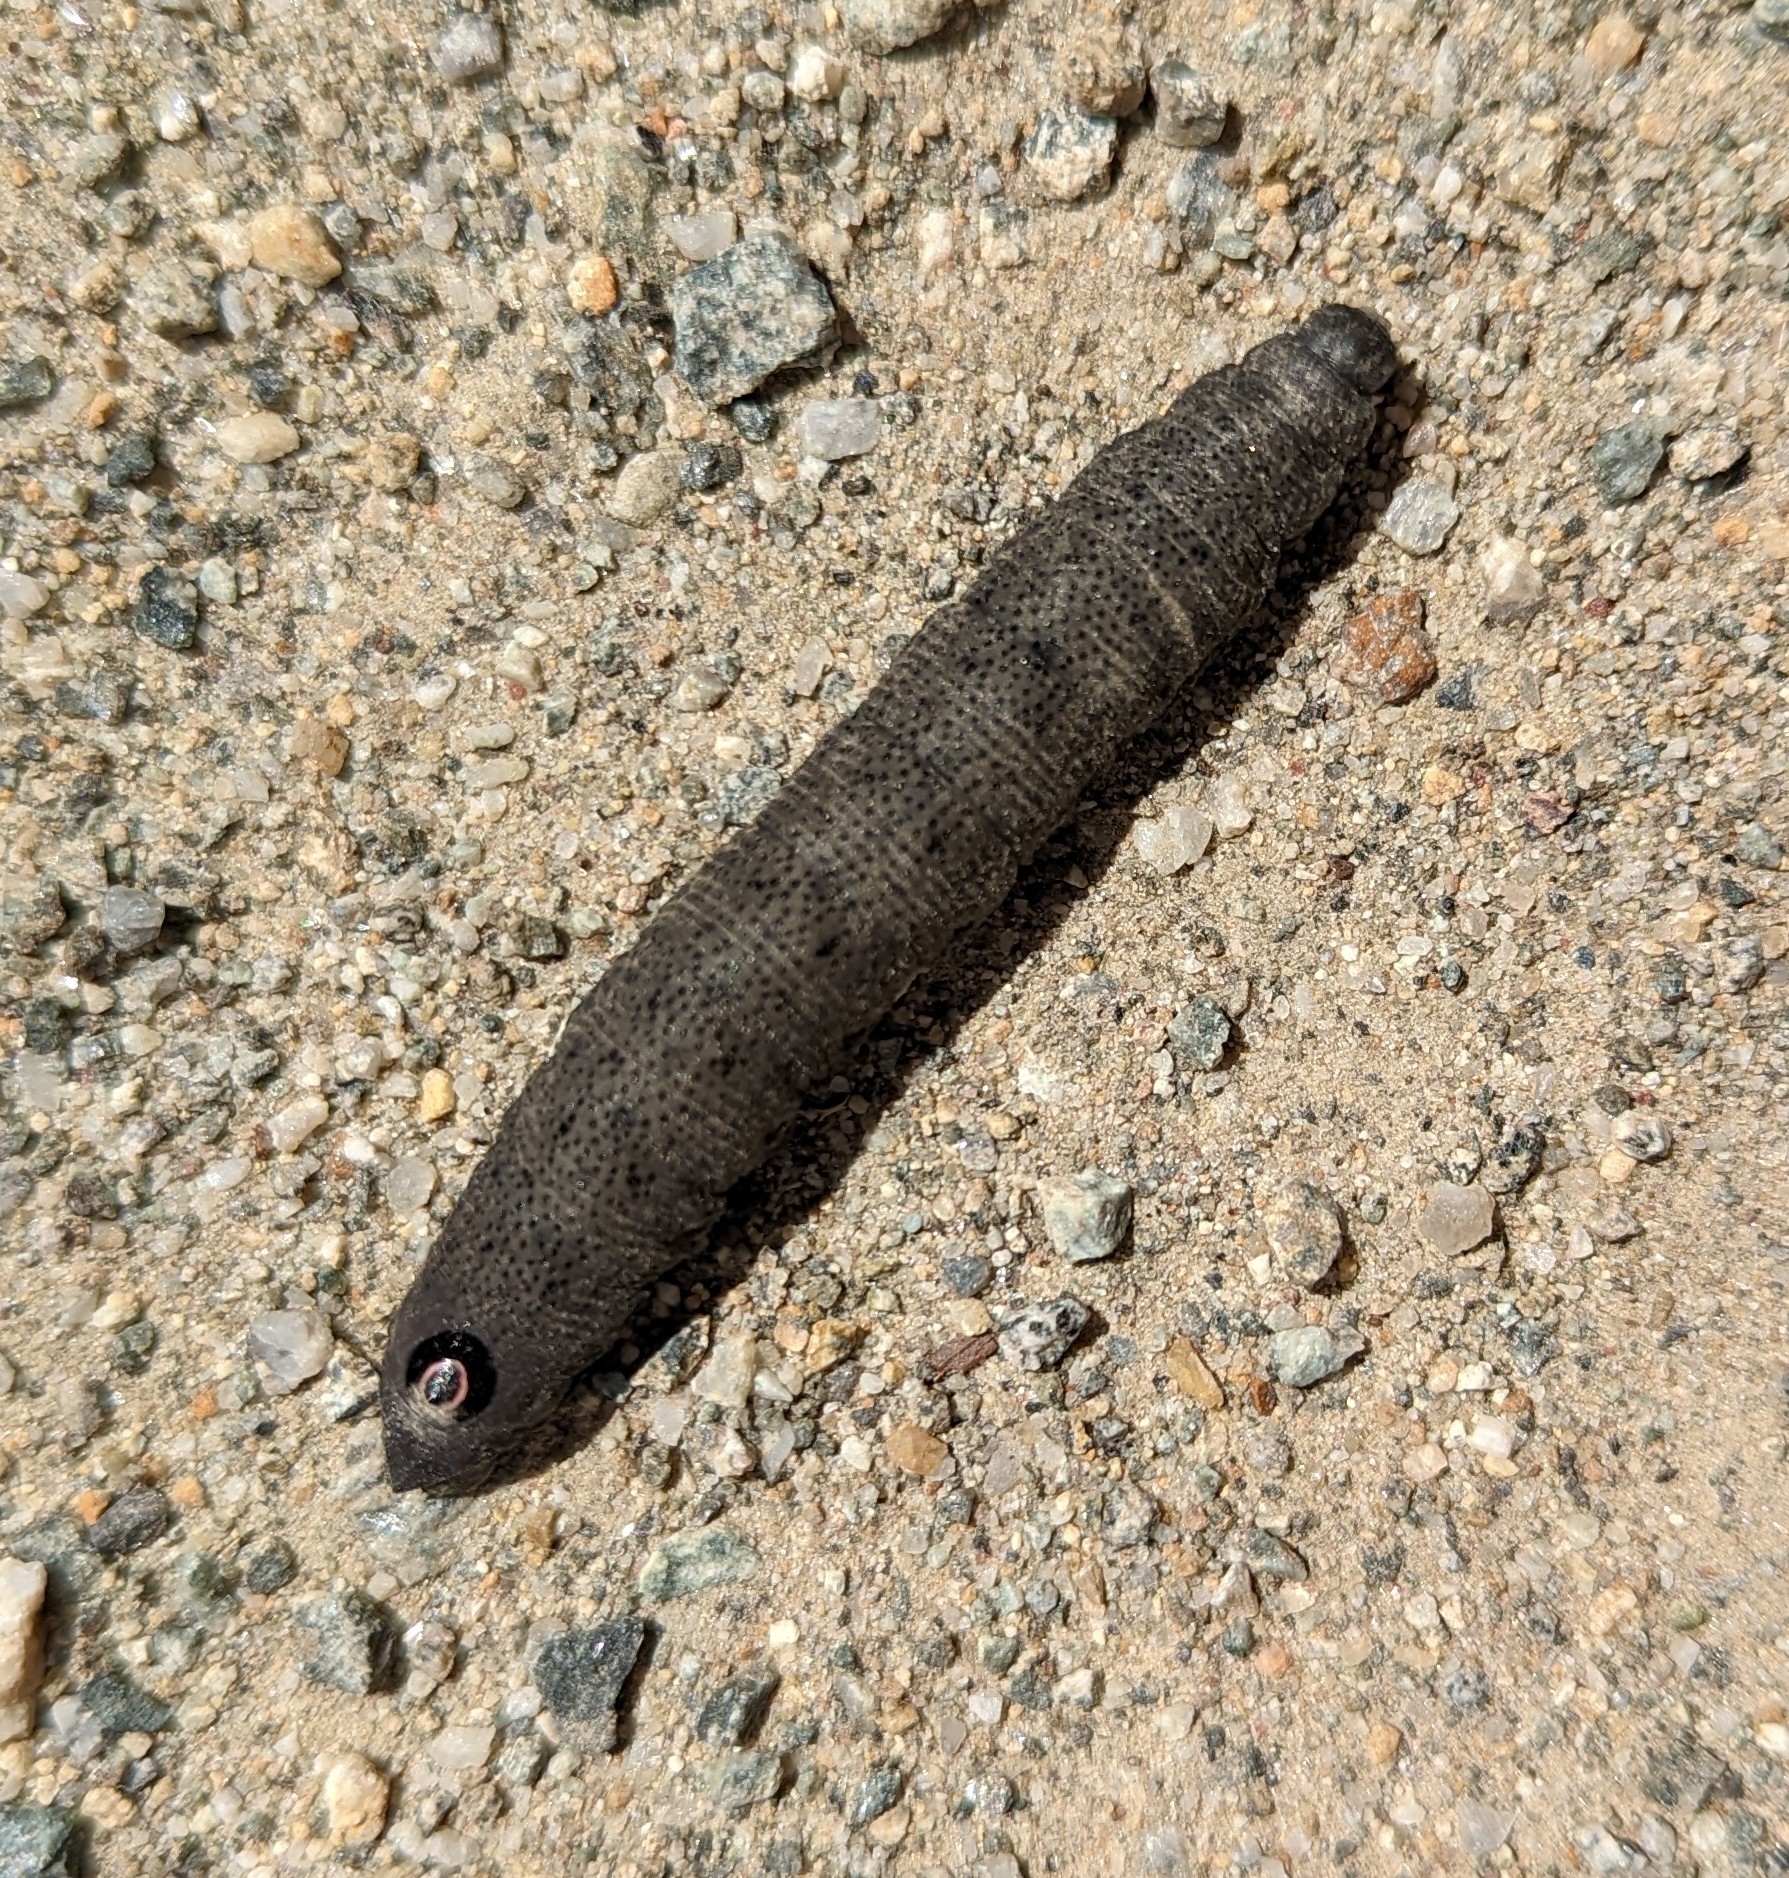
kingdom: Animalia
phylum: Arthropoda
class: Insecta
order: Lepidoptera
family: Sphingidae
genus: Proserpinus
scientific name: Proserpinus flavofasciata
